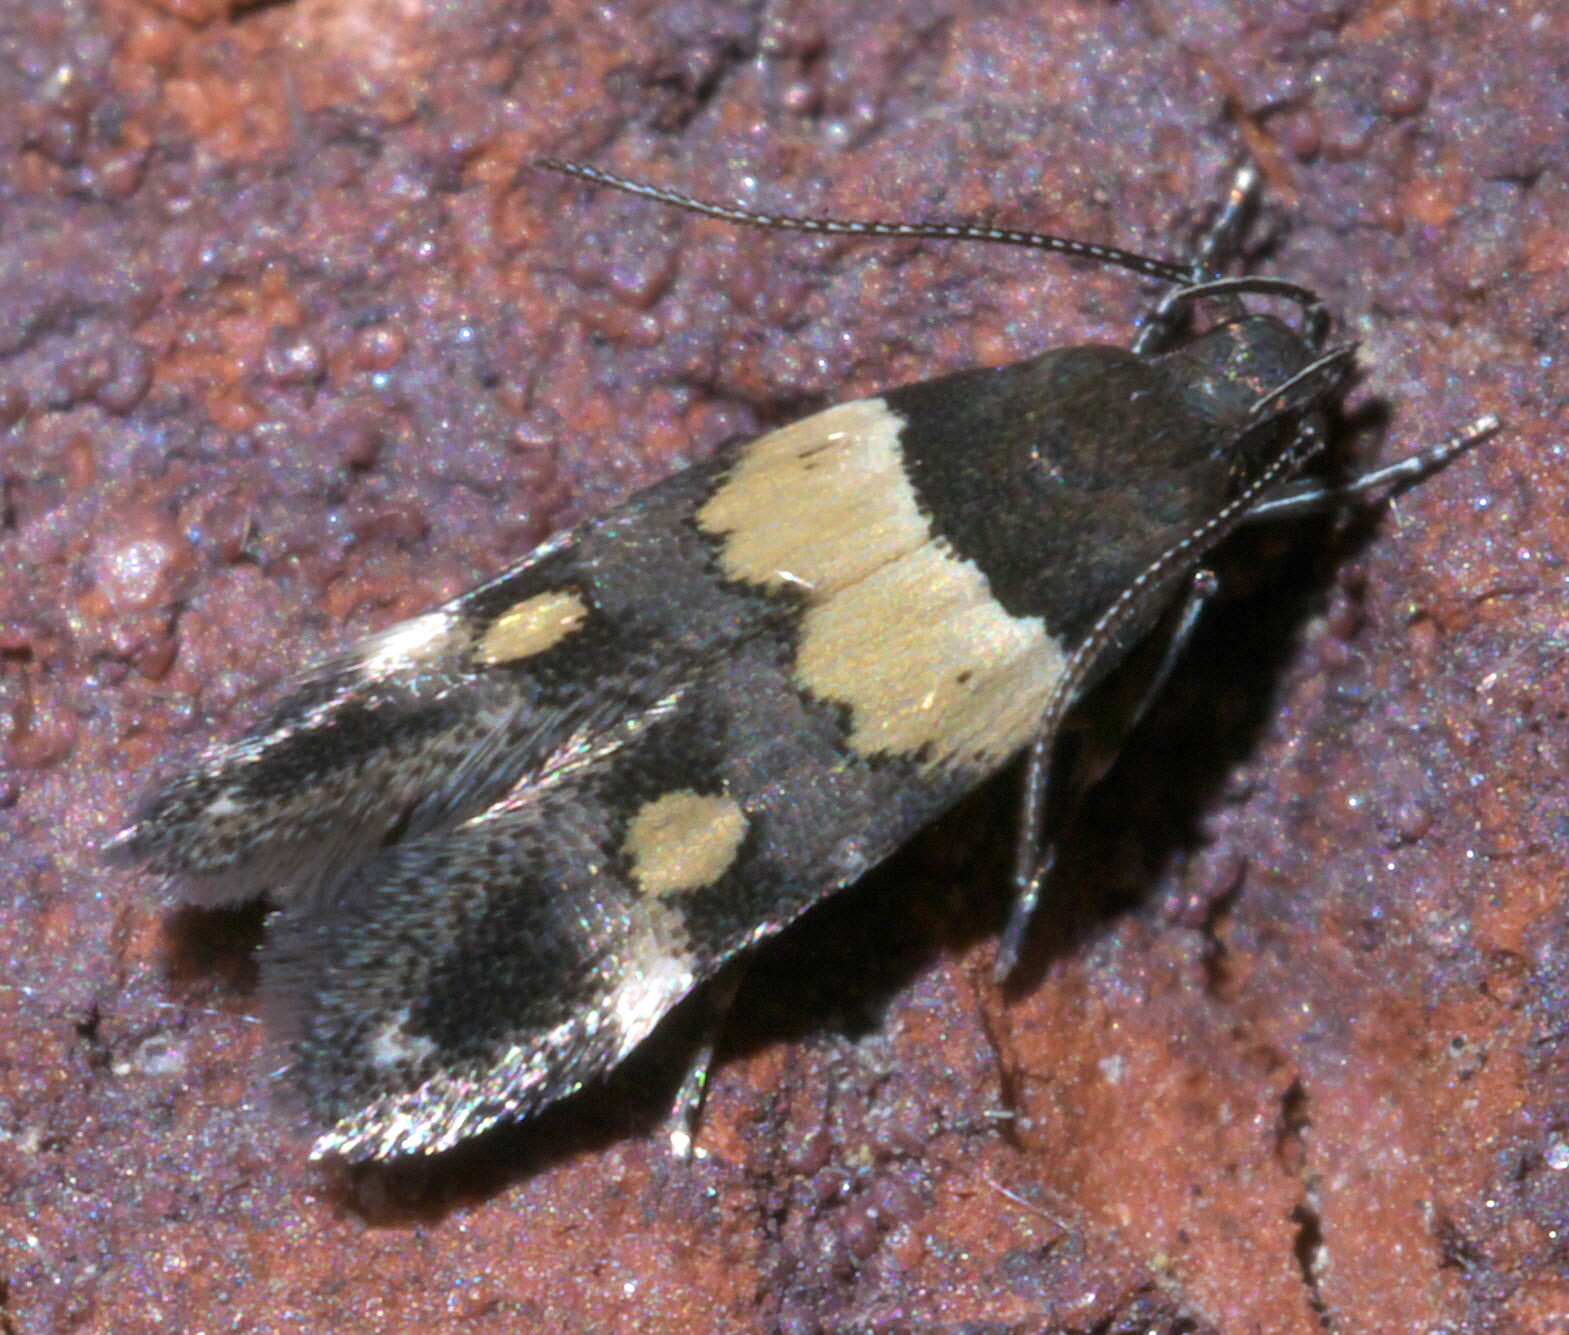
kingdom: Animalia
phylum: Arthropoda
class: Insecta
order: Lepidoptera
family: Momphidae
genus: Triclonella
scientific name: Triclonella determinatella
